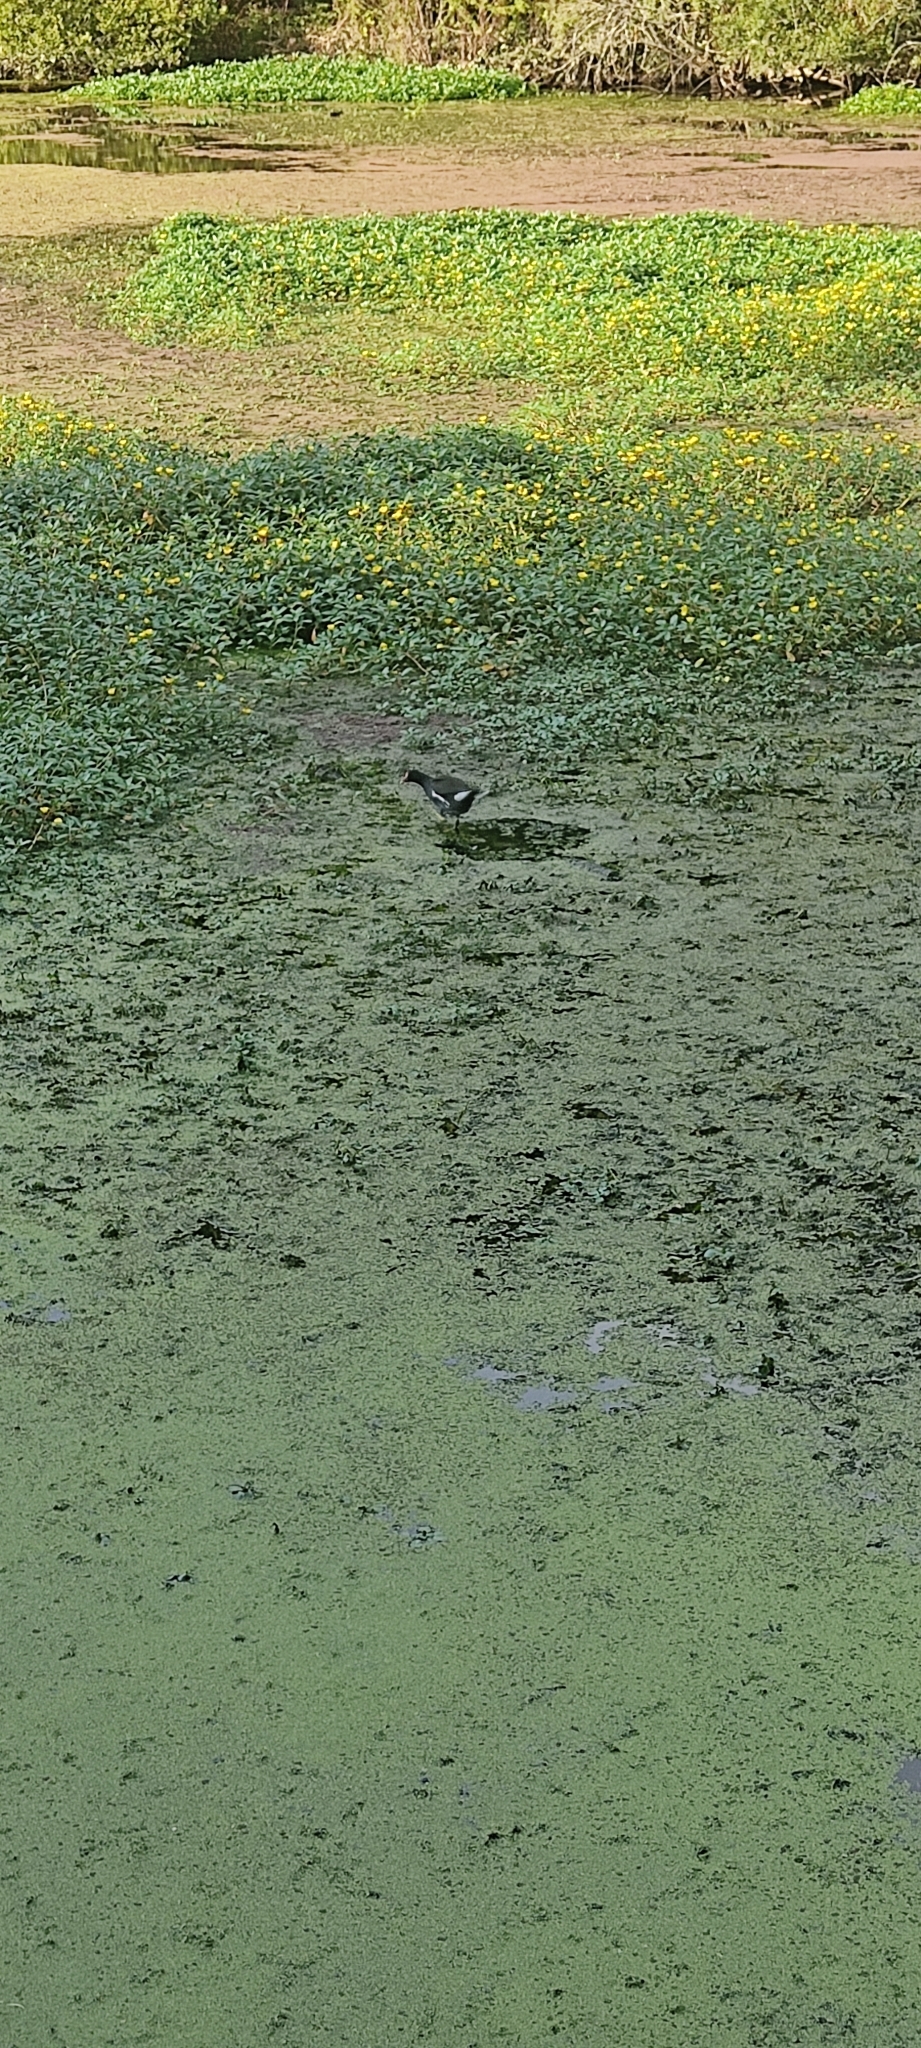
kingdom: Animalia
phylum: Chordata
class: Aves
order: Gruiformes
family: Rallidae
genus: Gallinula
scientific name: Gallinula chloropus
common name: Common moorhen
